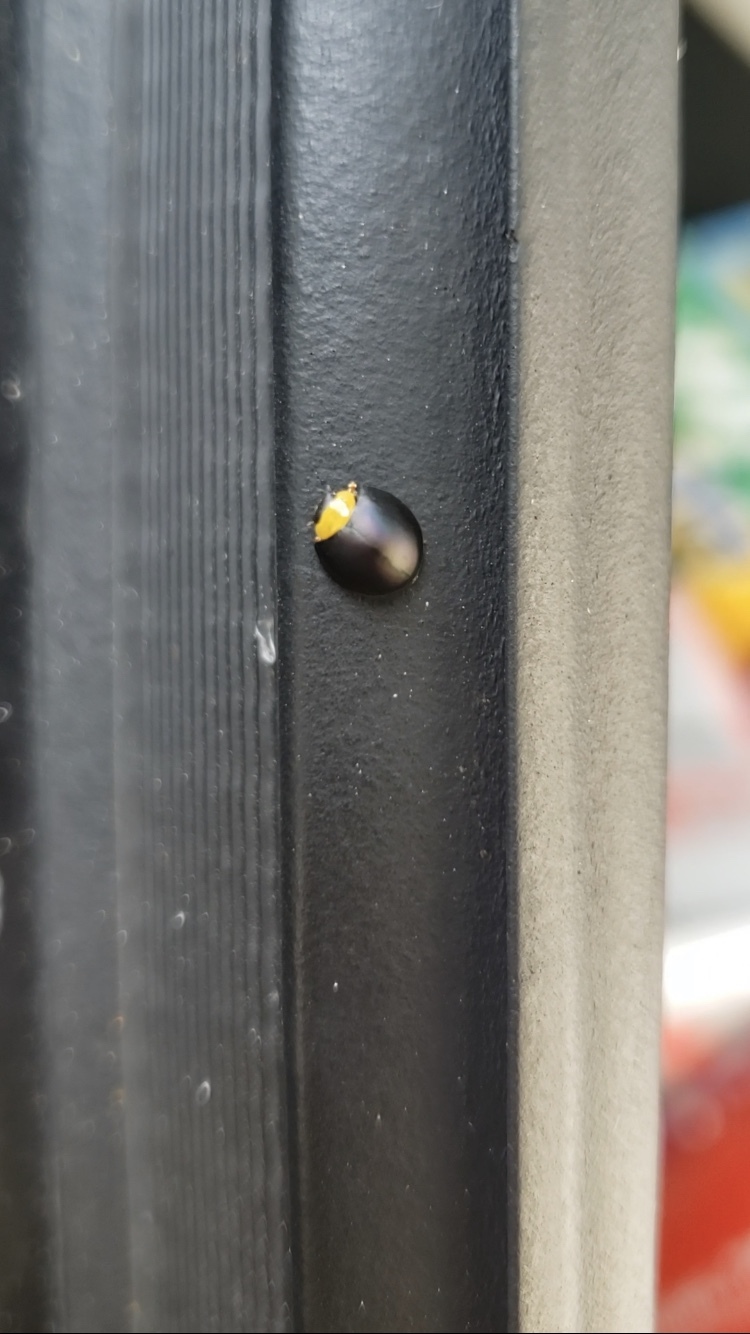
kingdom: Animalia
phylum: Arthropoda
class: Insecta
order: Coleoptera
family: Coccinellidae
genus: Egius
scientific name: Egius platycephalus
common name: Ladybird beetle
